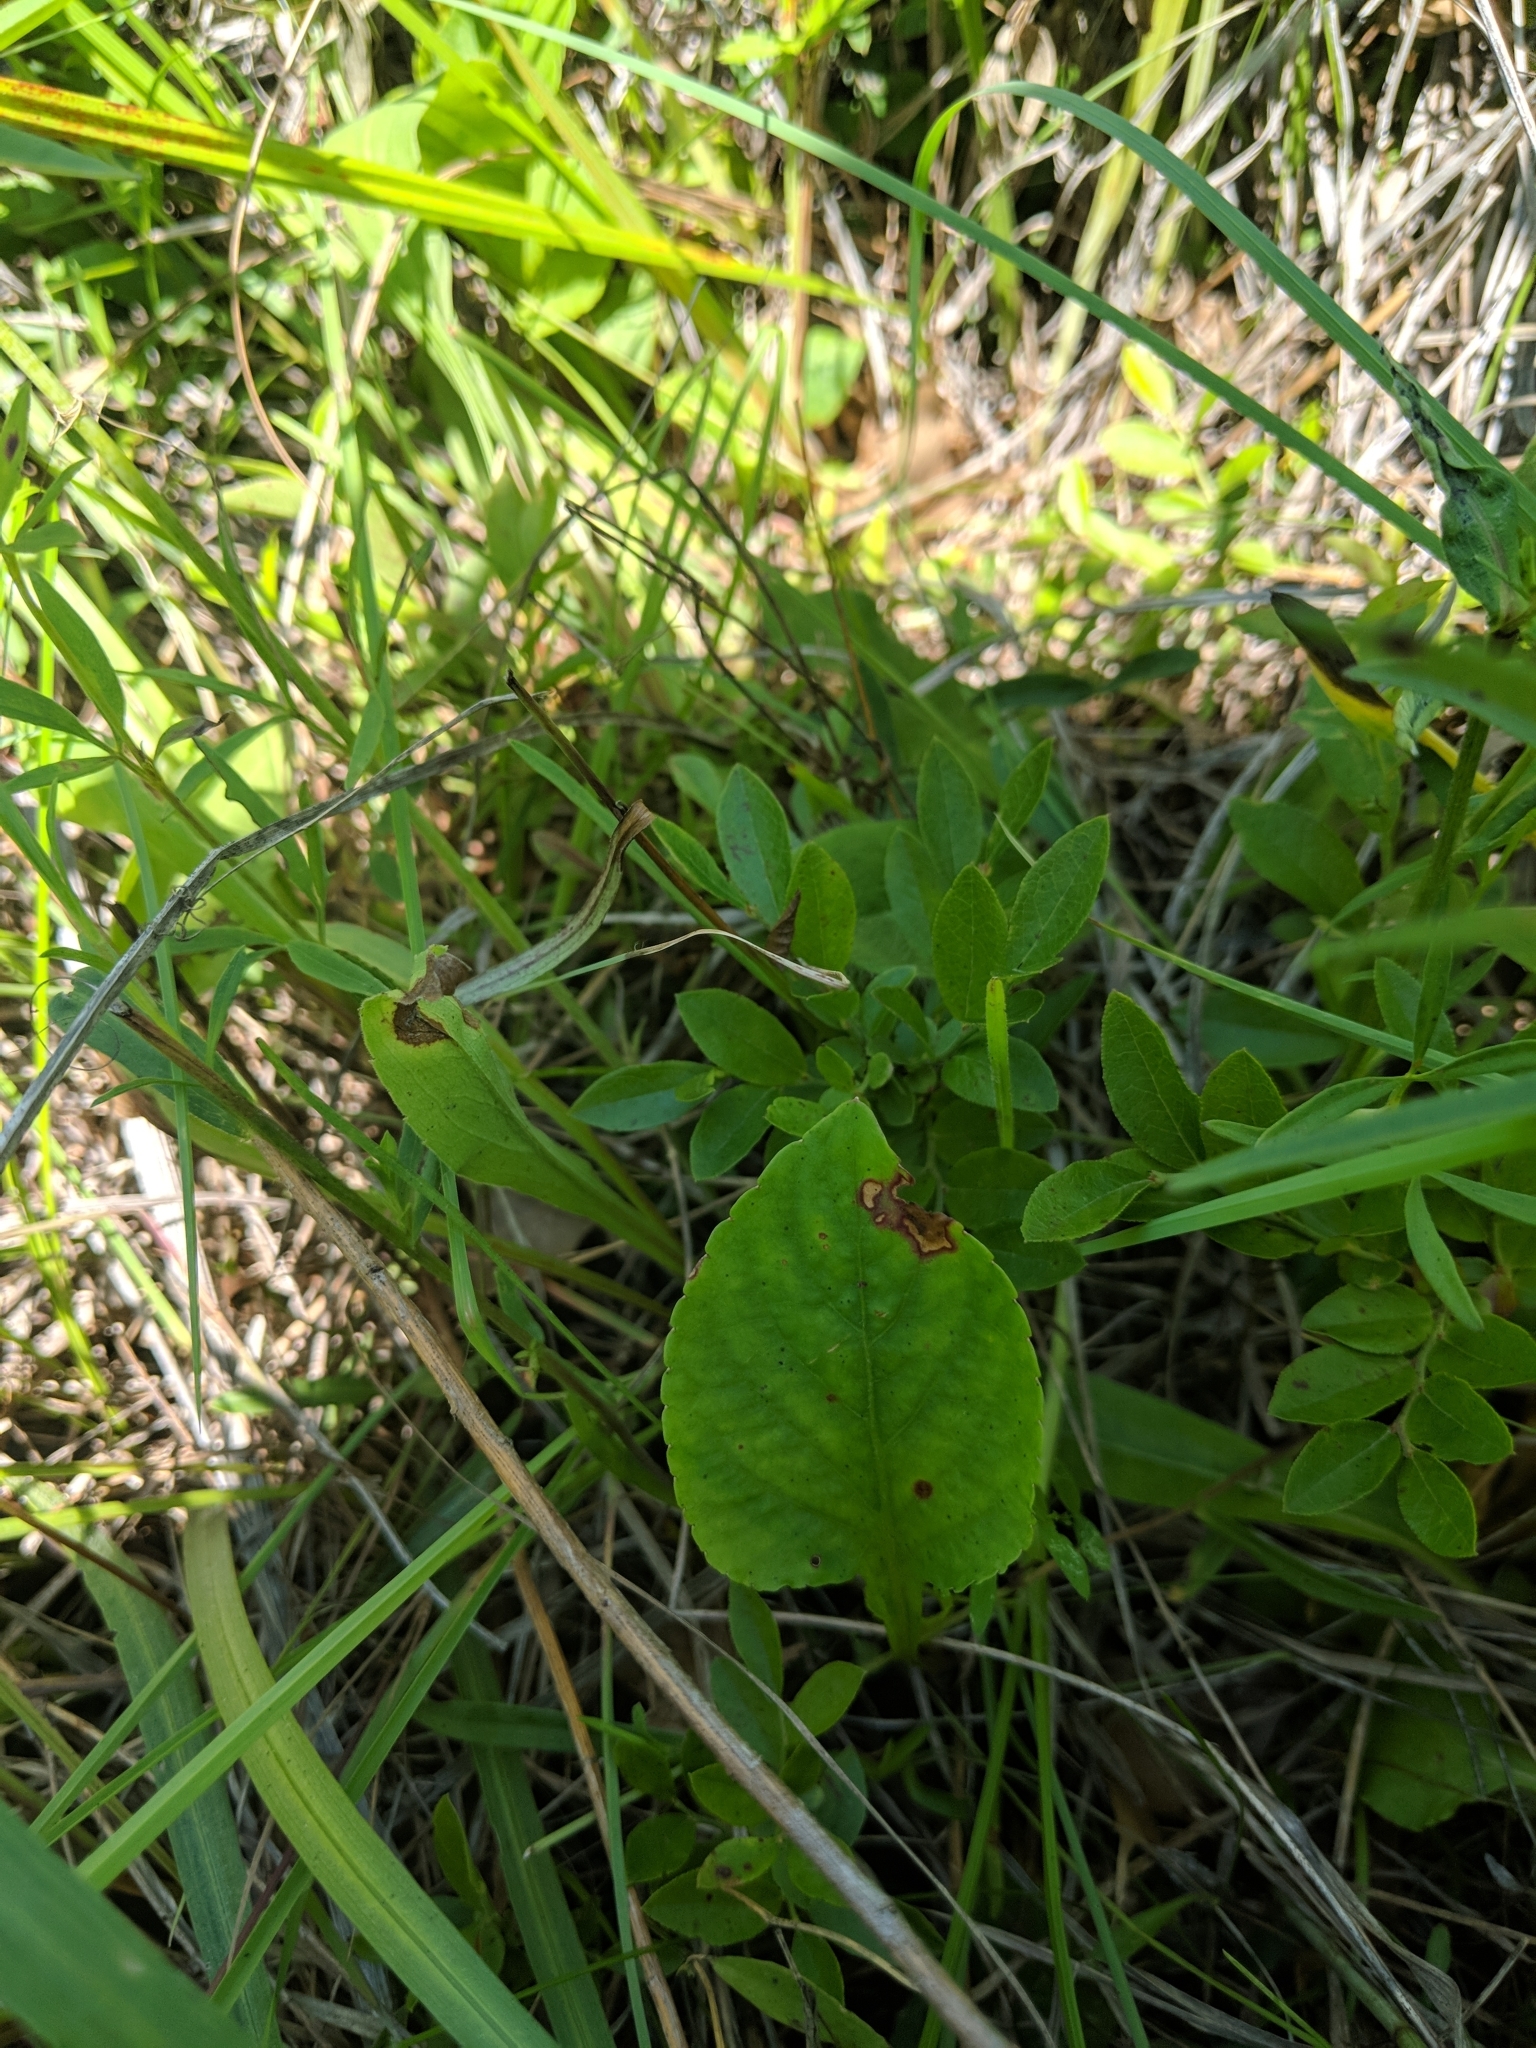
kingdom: Plantae
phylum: Tracheophyta
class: Magnoliopsida
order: Malpighiales
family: Violaceae
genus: Viola
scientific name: Viola primulifolia
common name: Primrose-leaf violet
